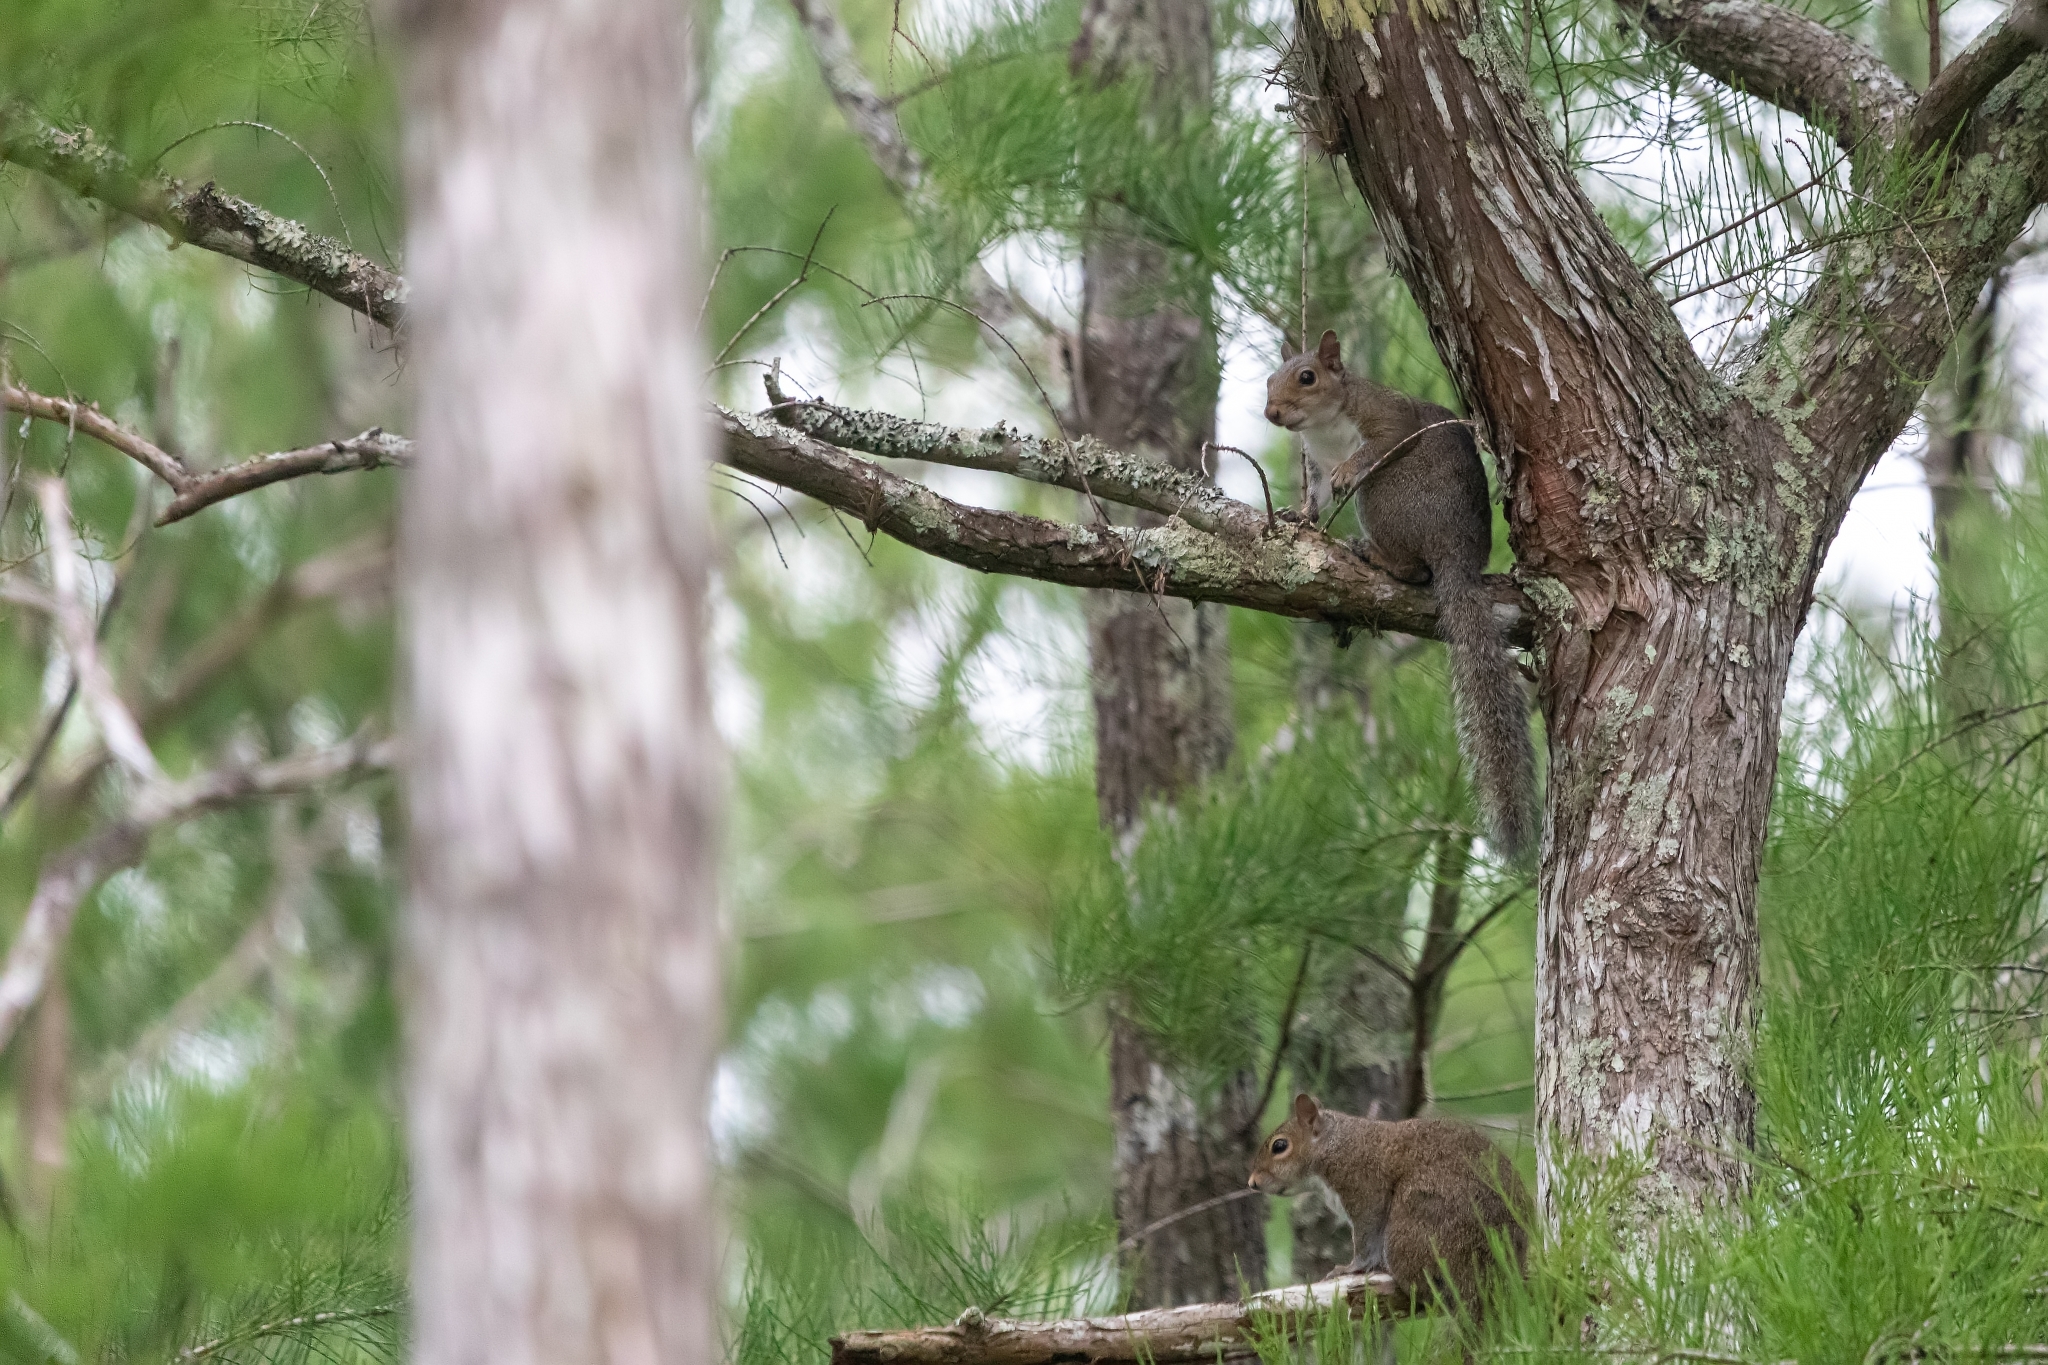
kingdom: Animalia
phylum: Chordata
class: Mammalia
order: Rodentia
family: Sciuridae
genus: Sciurus
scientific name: Sciurus carolinensis
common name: Eastern gray squirrel
